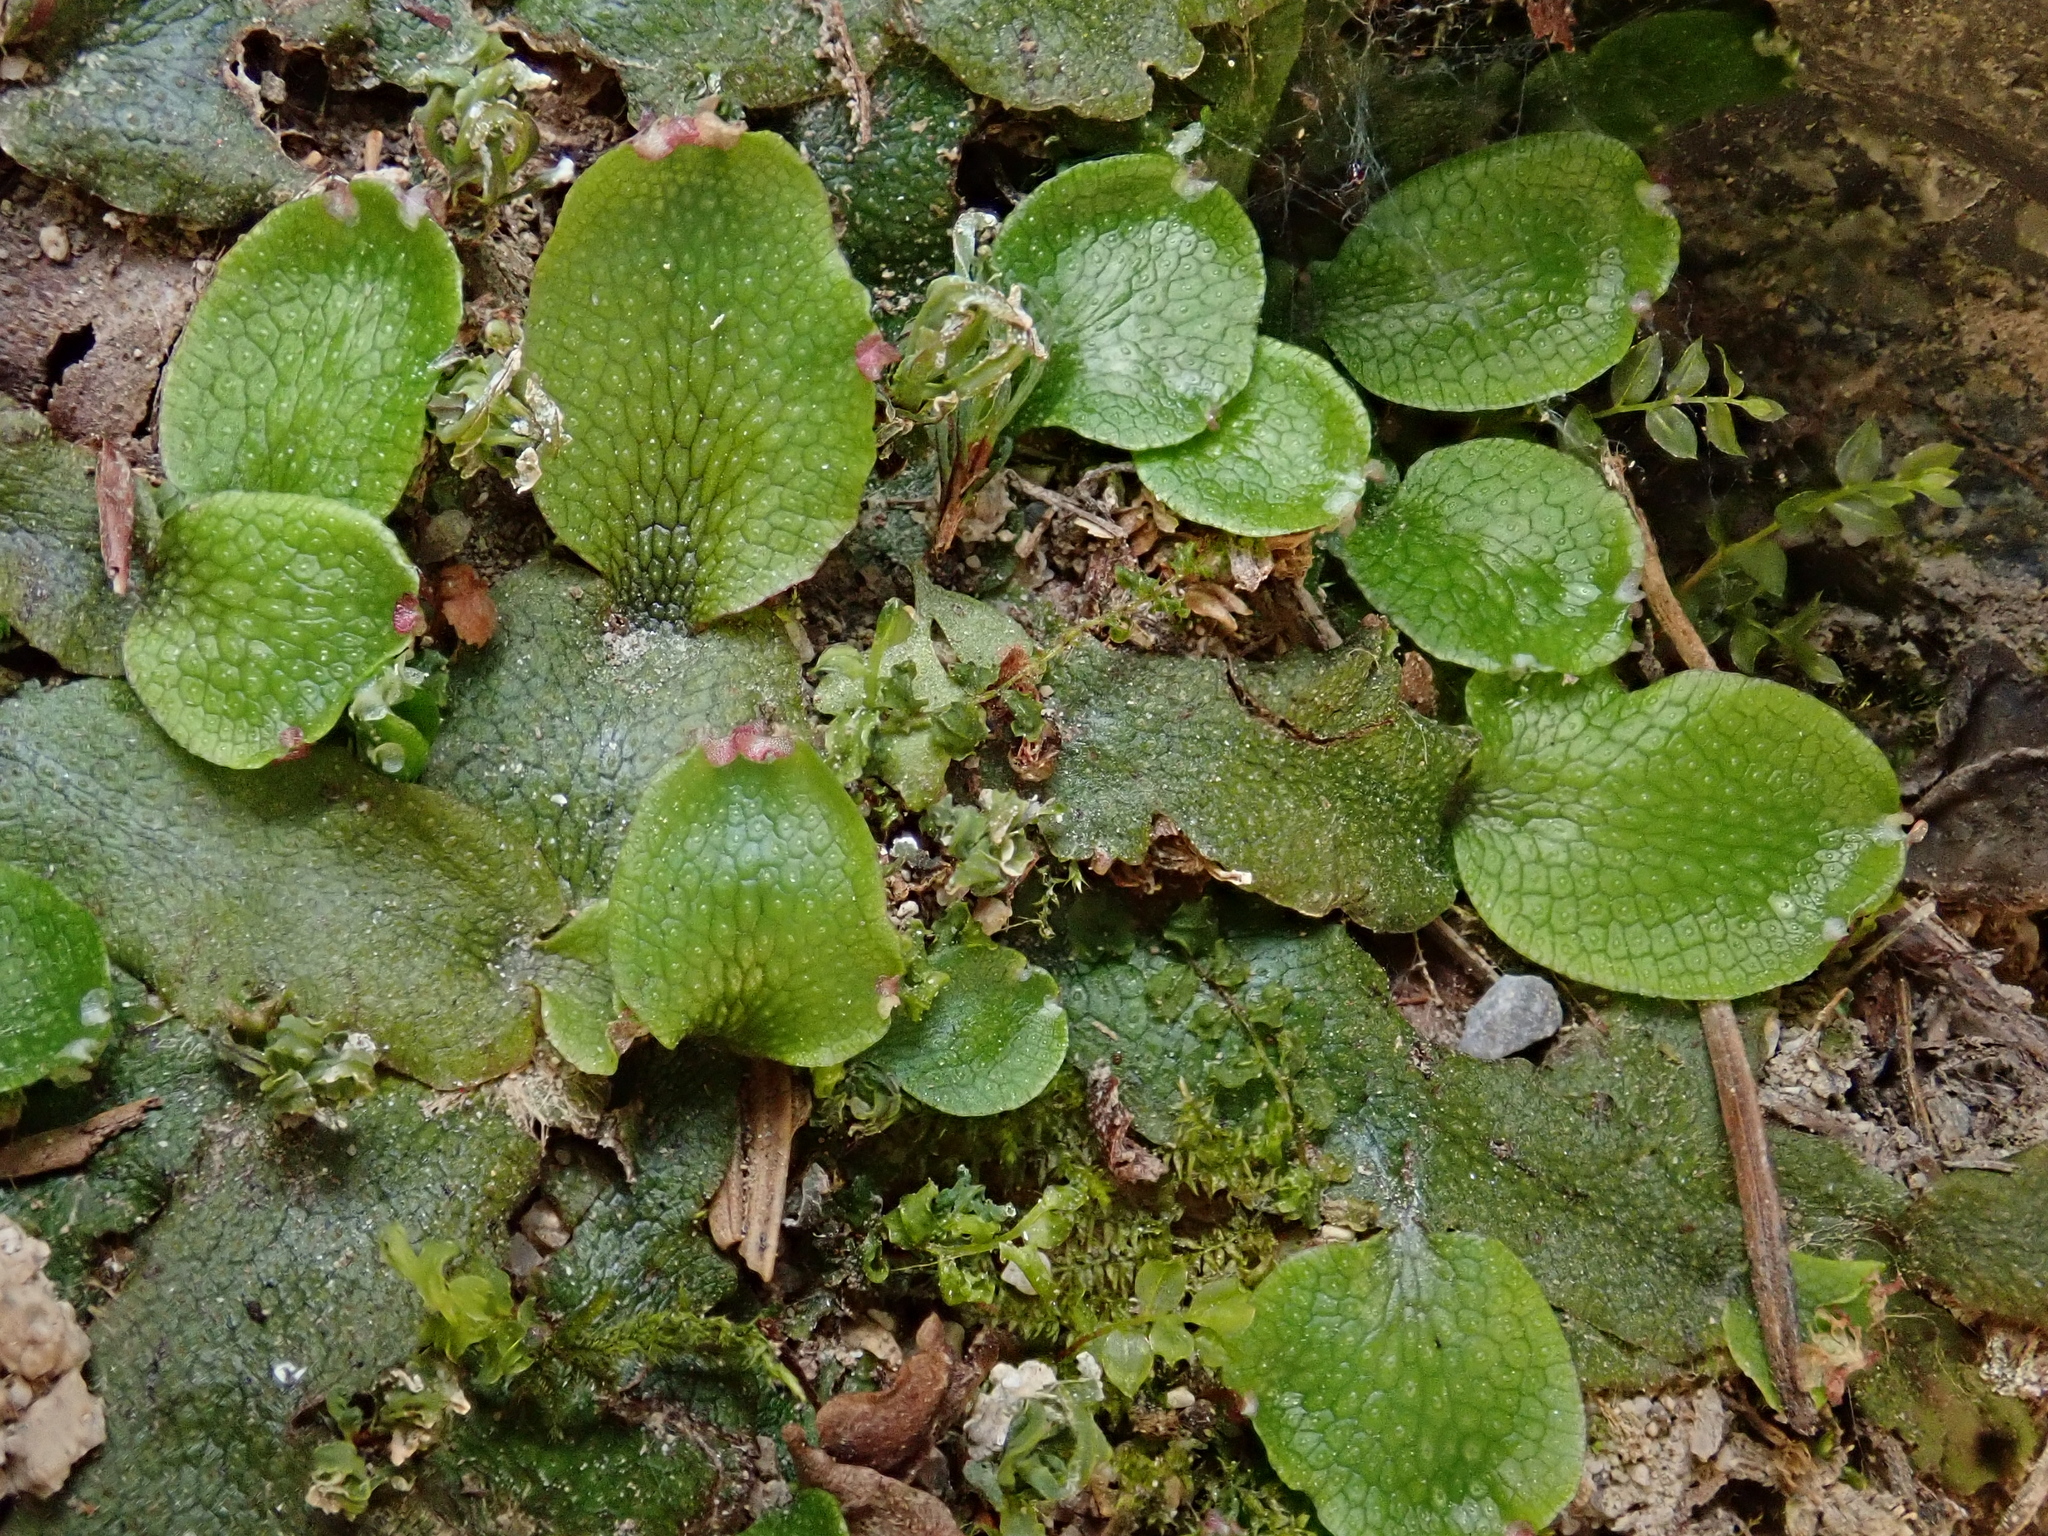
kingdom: Plantae
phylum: Marchantiophyta
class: Marchantiopsida
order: Marchantiales
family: Conocephalaceae
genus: Conocephalum
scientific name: Conocephalum salebrosum
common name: Cat-tongue liverwort
